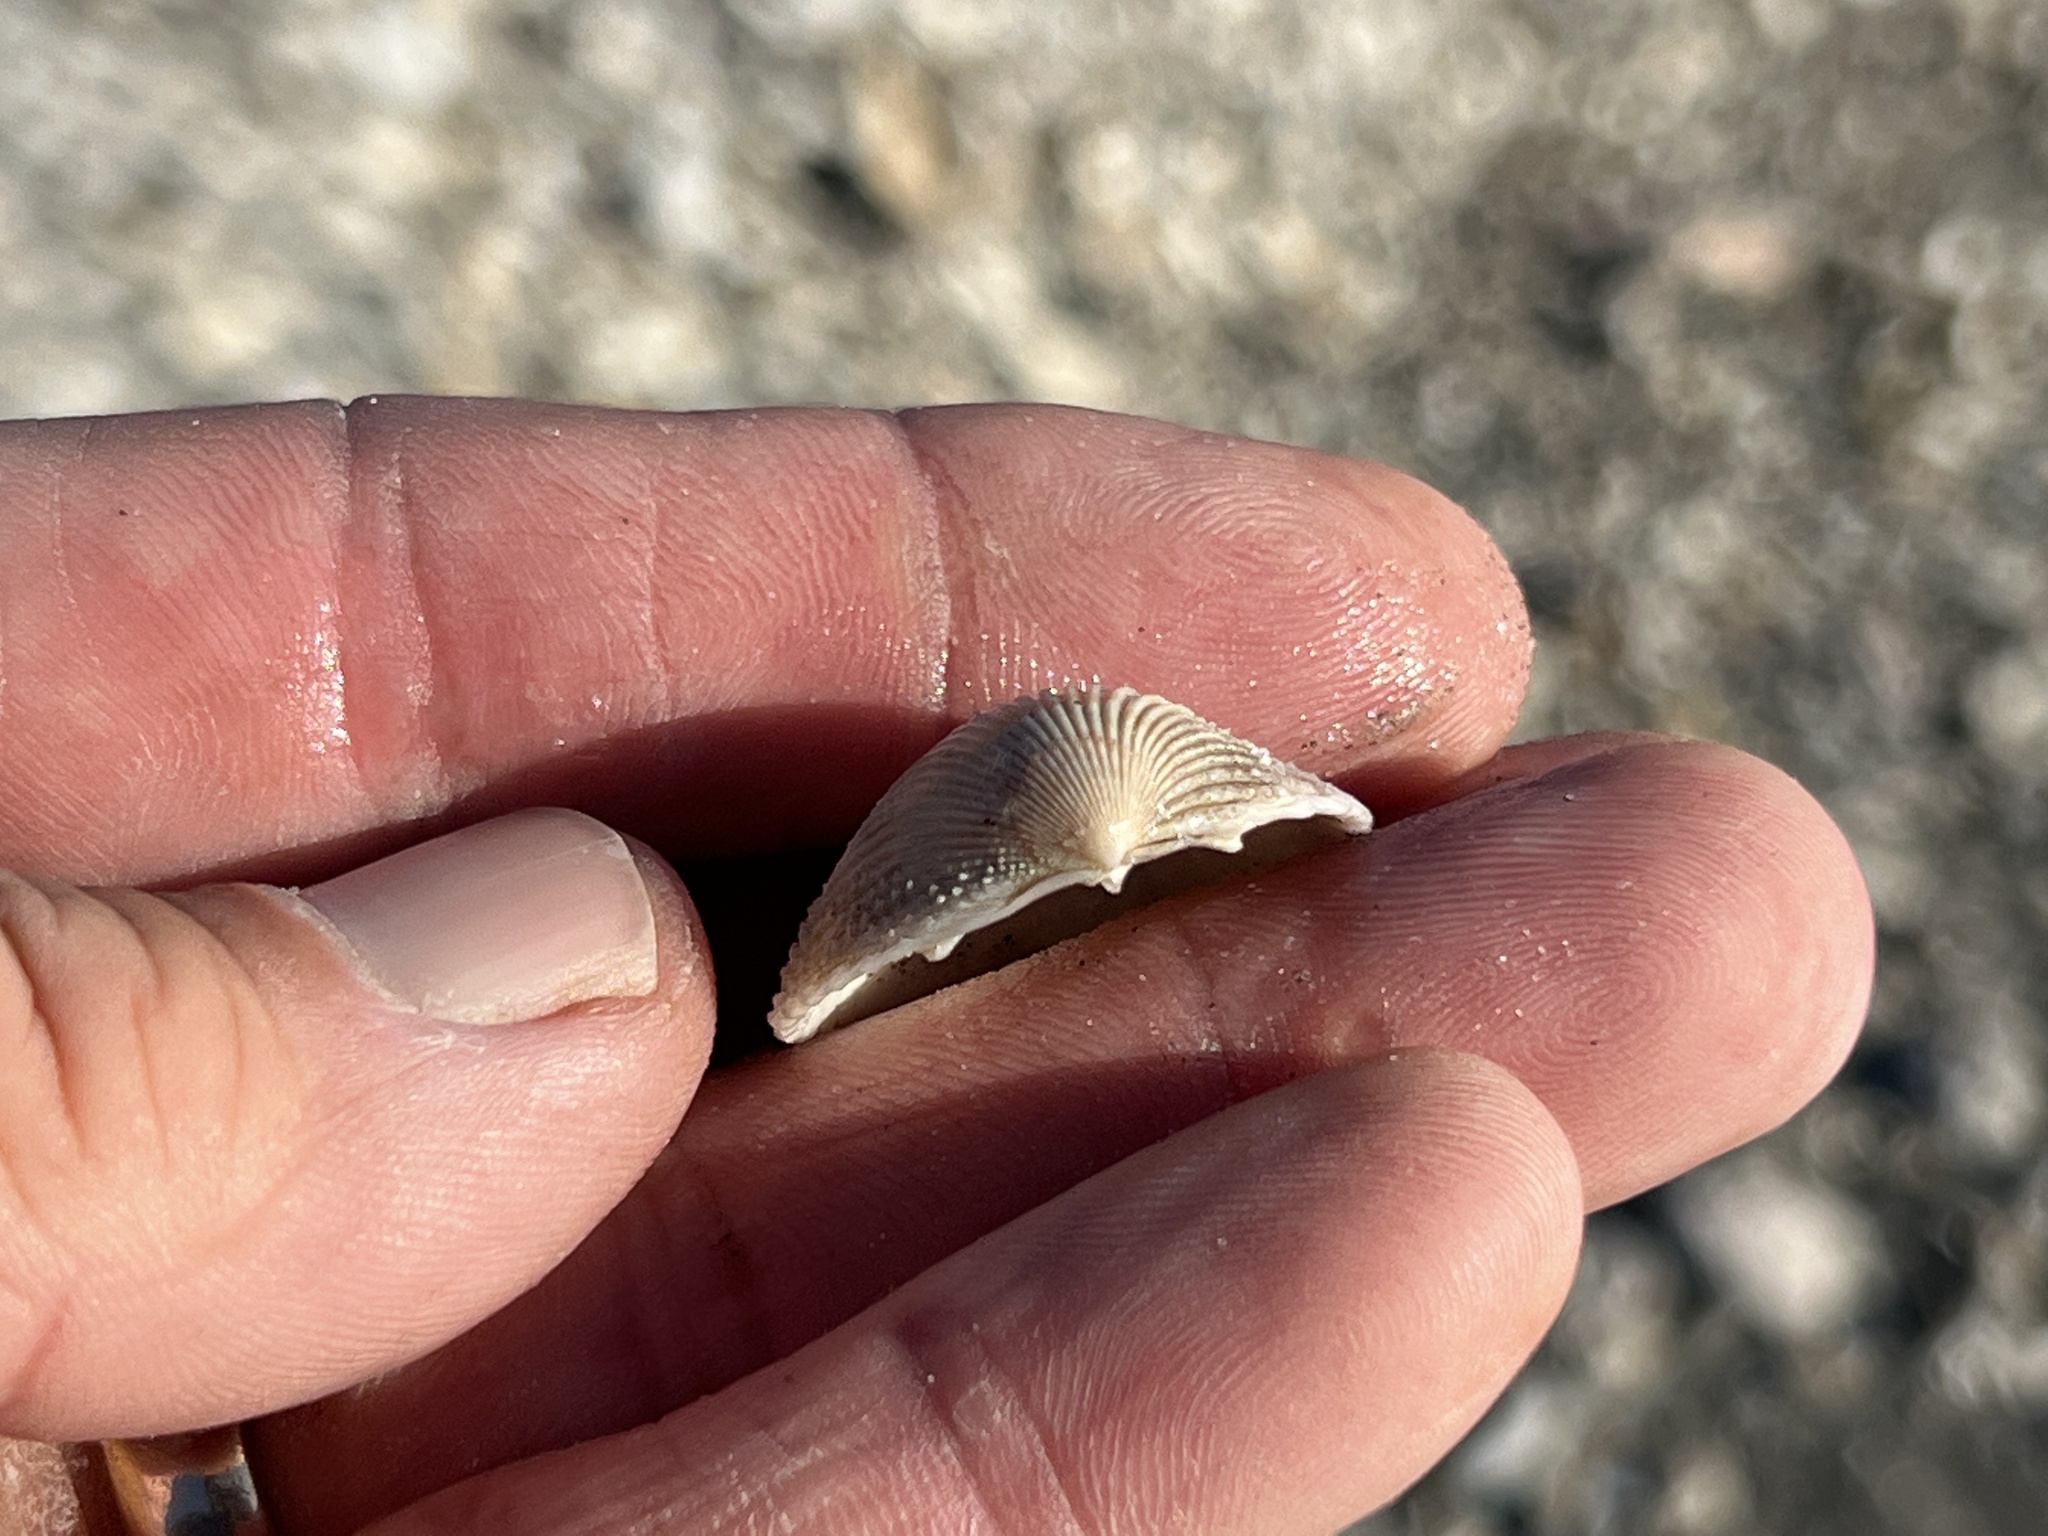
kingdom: Animalia
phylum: Mollusca
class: Bivalvia
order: Cardiida
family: Cardiidae
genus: Dallocardia
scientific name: Dallocardia muricata
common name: Yellow pricklycockle
